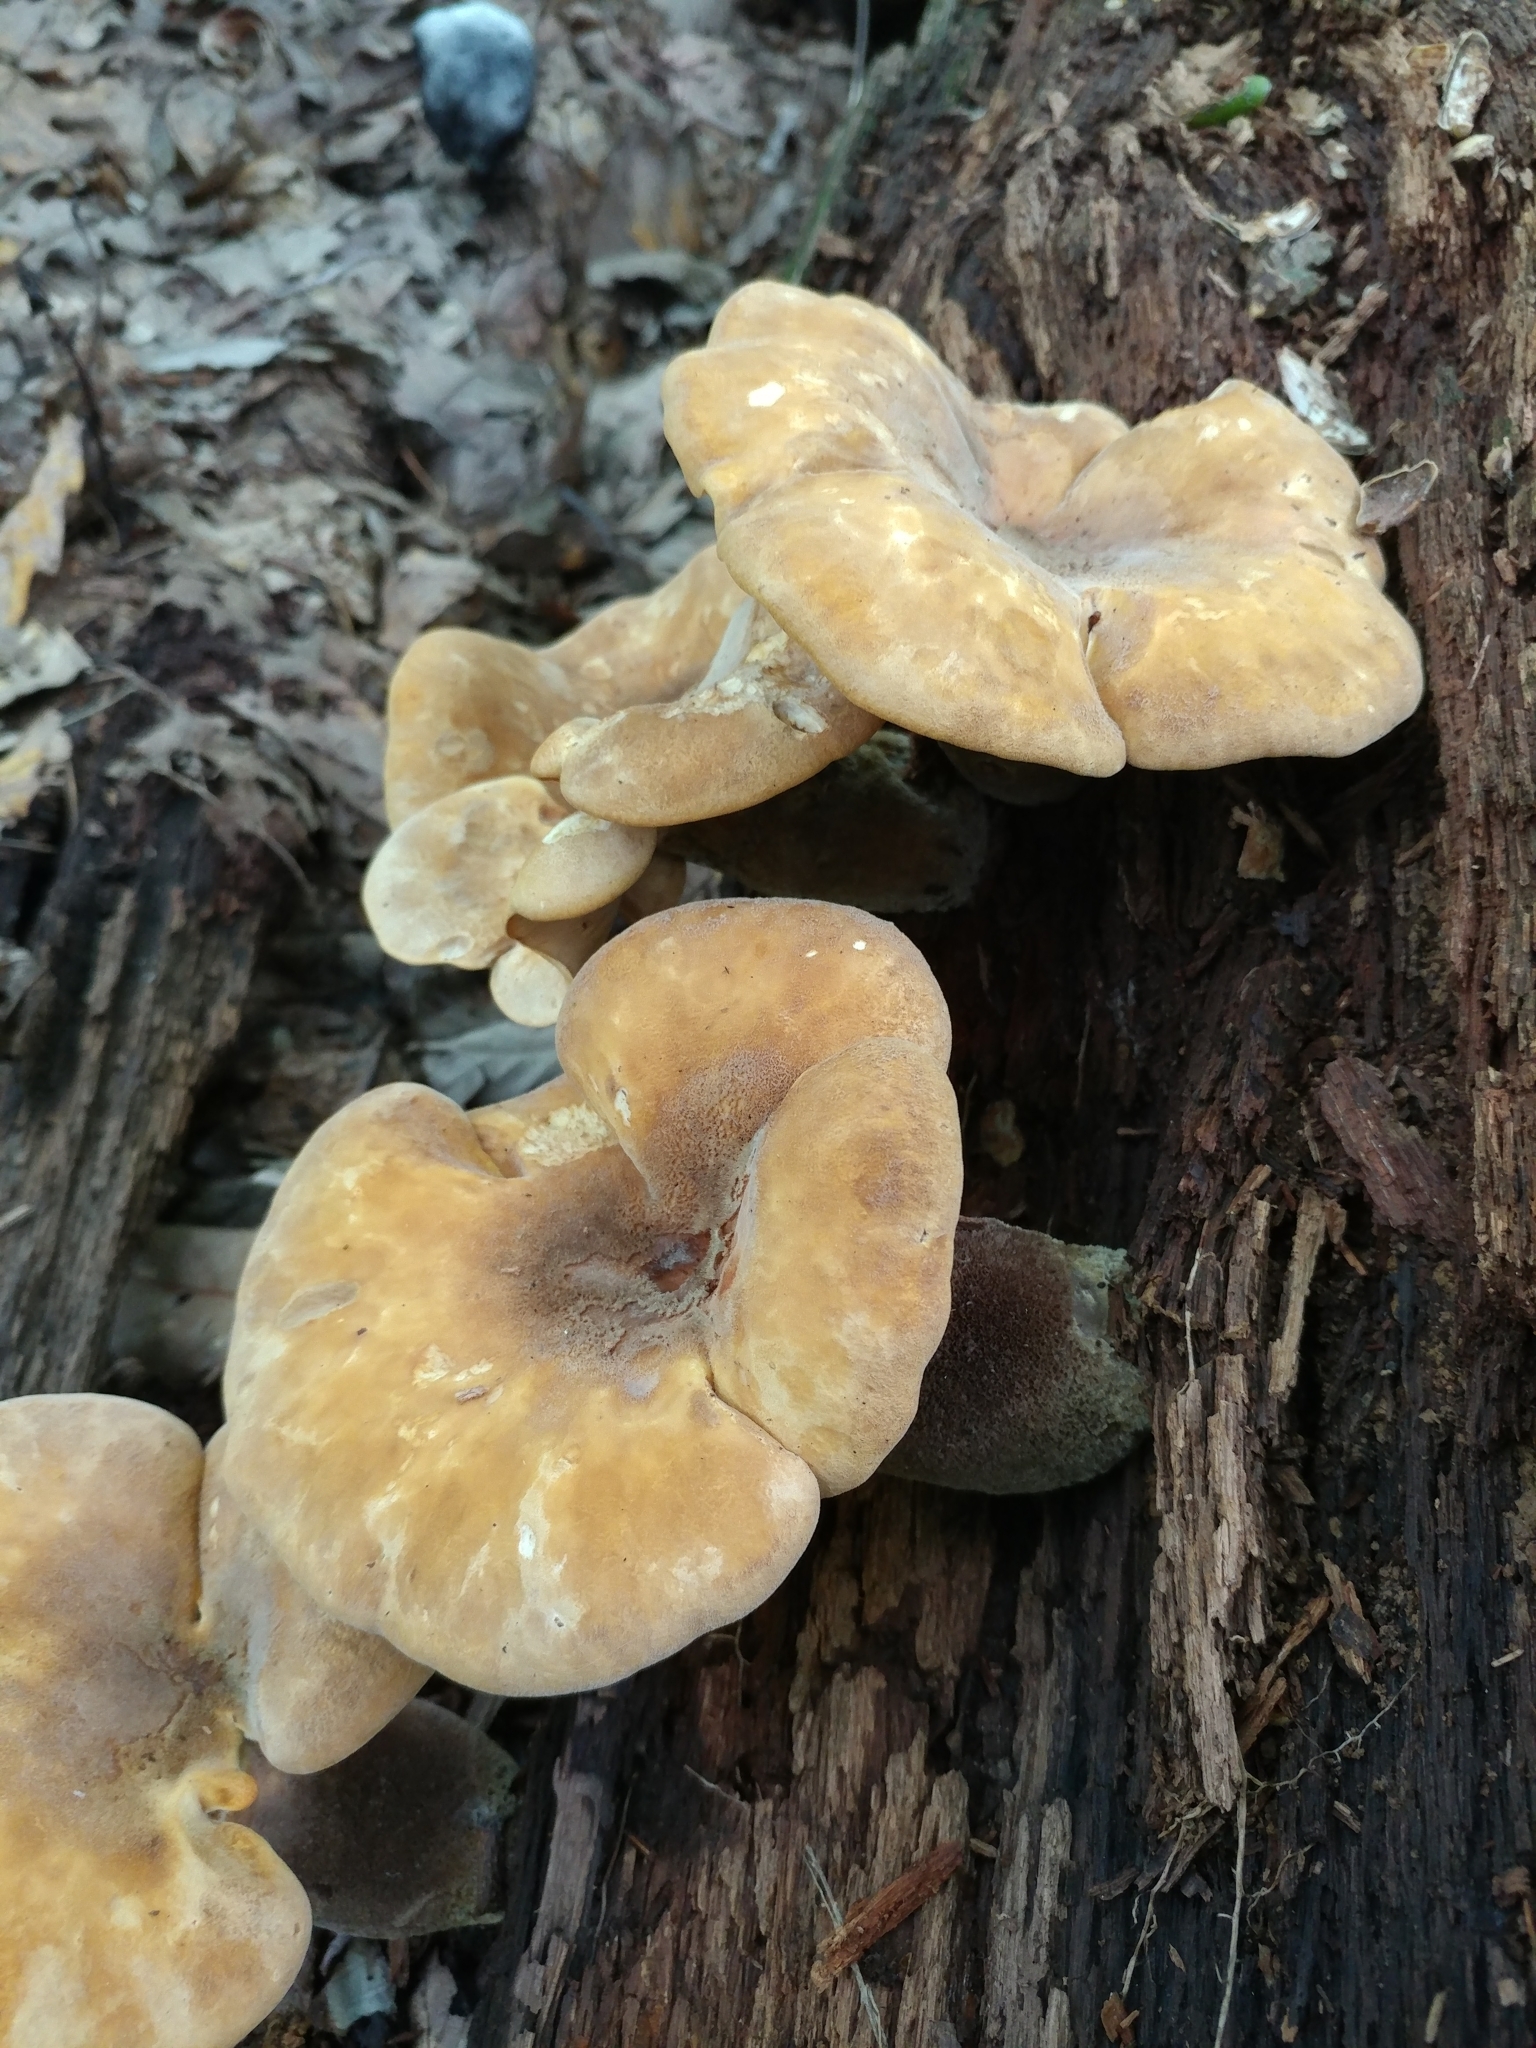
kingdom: Fungi
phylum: Basidiomycota
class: Agaricomycetes
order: Boletales
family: Tapinellaceae
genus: Tapinella
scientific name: Tapinella atrotomentosa
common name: Velvet rollrim
